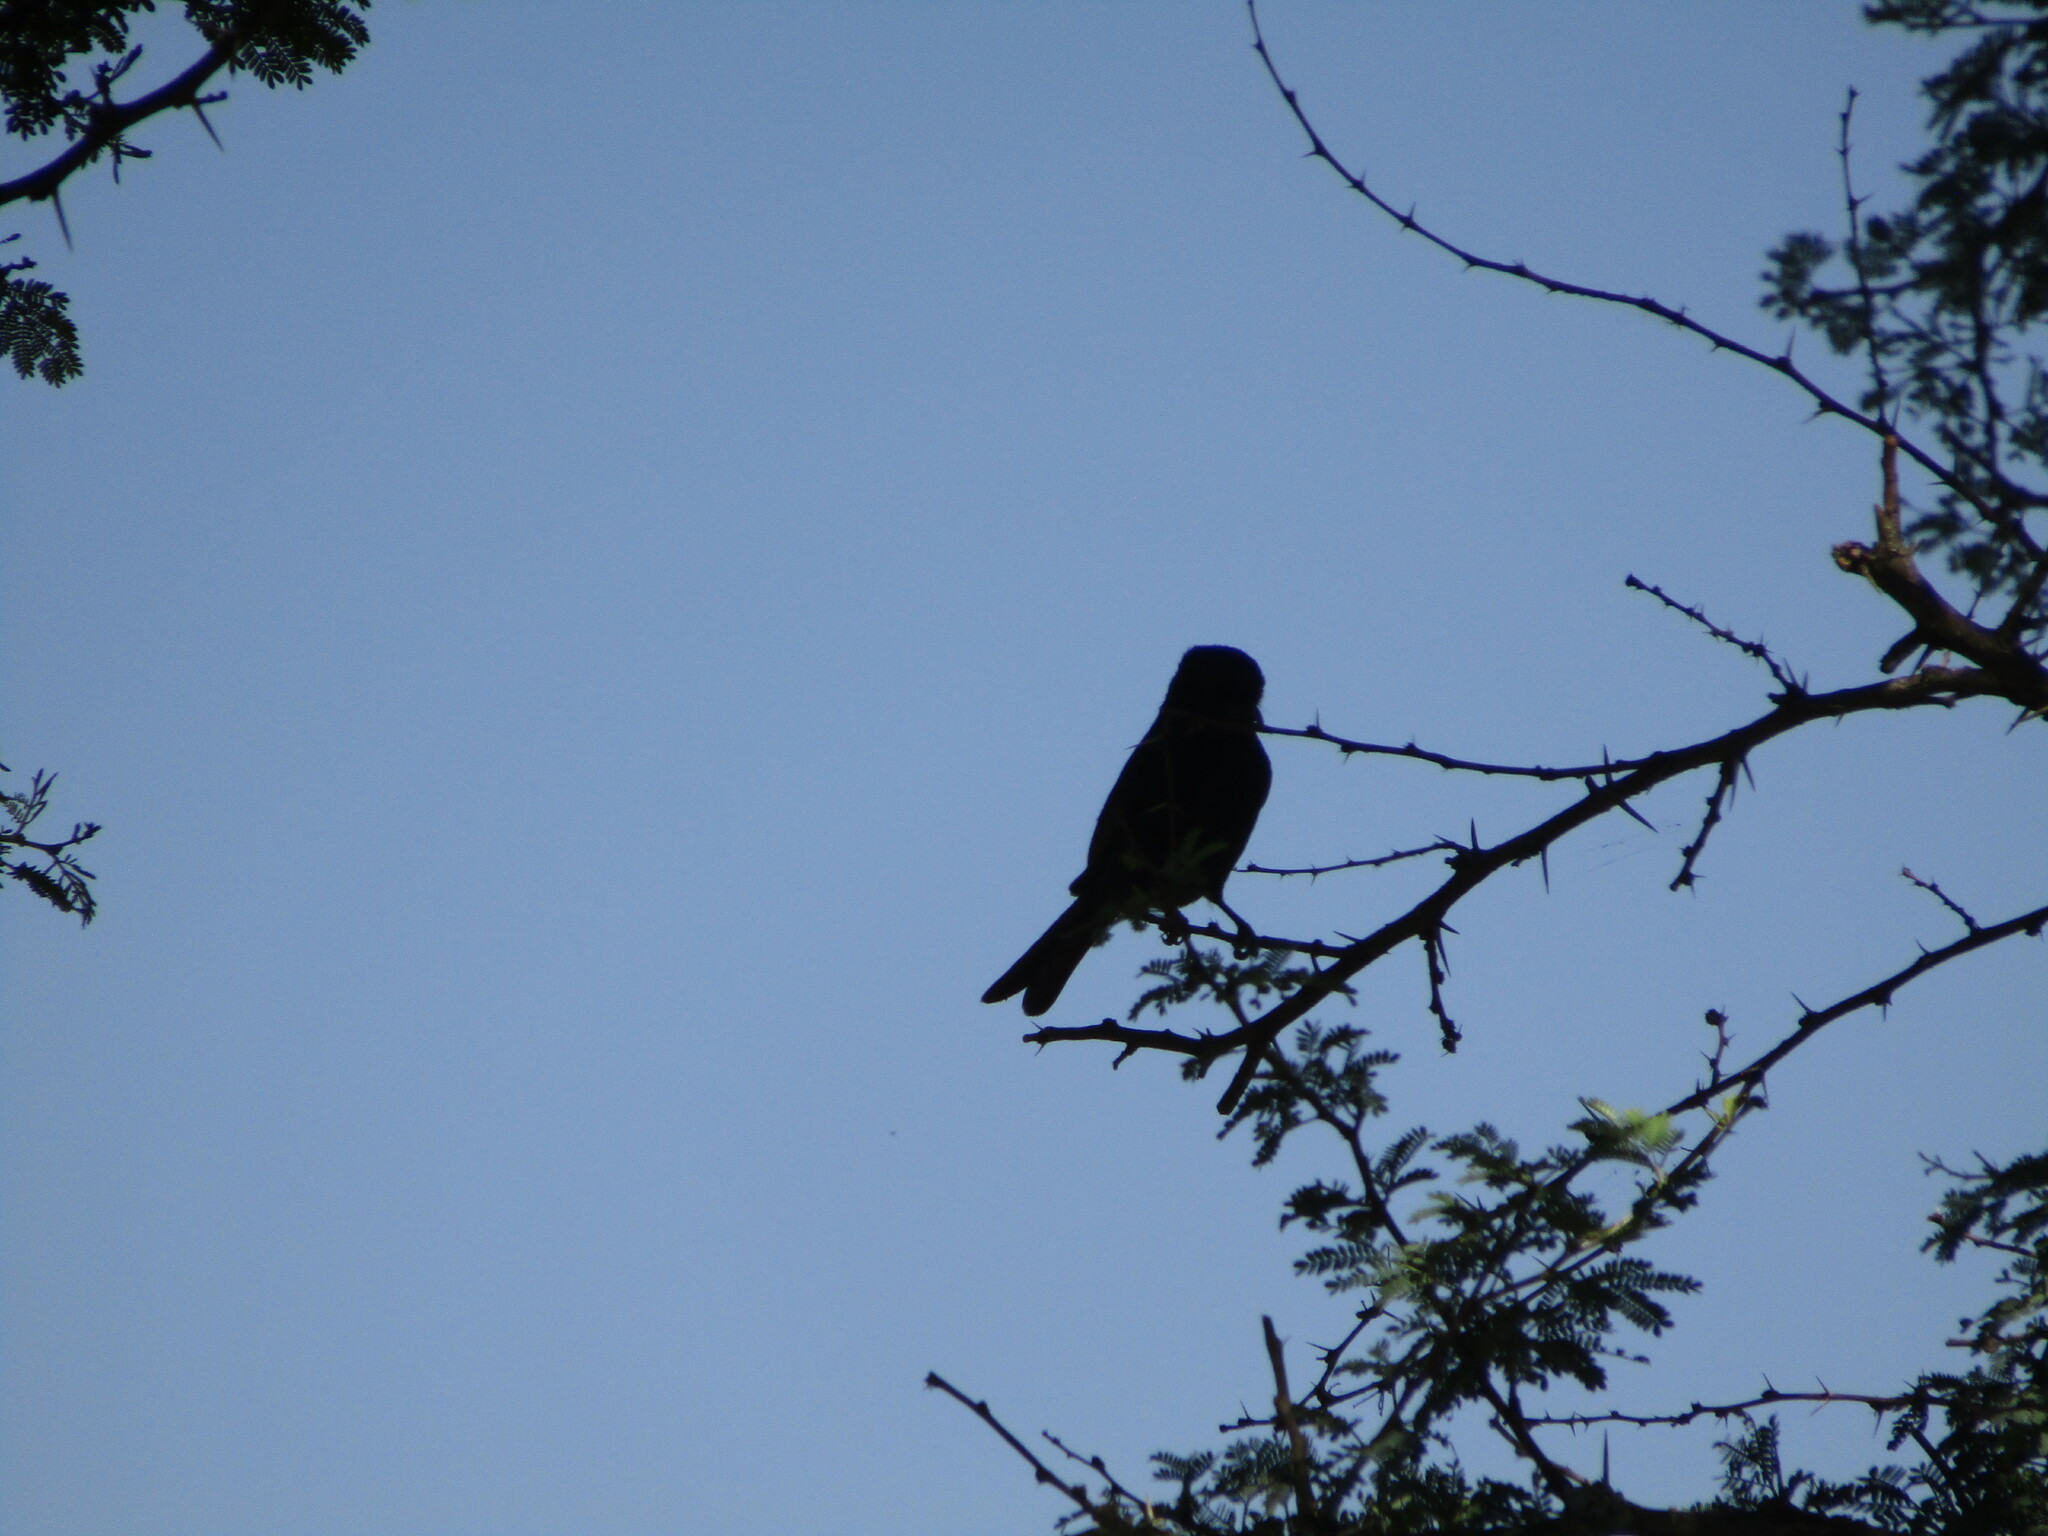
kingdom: Animalia
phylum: Chordata
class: Aves
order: Passeriformes
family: Dicruridae
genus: Dicrurus
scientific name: Dicrurus adsimilis
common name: Fork-tailed drongo
